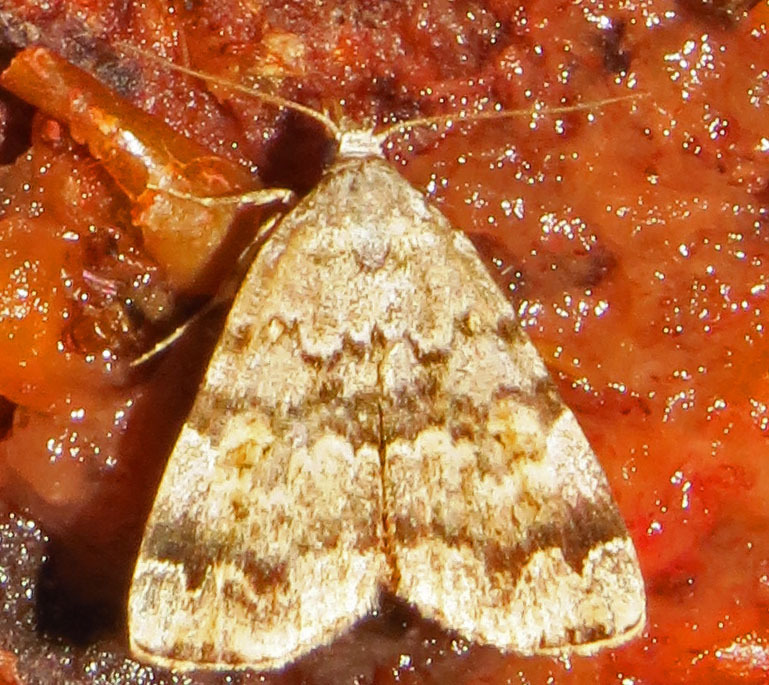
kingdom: Animalia
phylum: Arthropoda
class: Insecta
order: Lepidoptera
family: Erebidae
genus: Idia
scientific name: Idia americalis
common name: American idia moth
